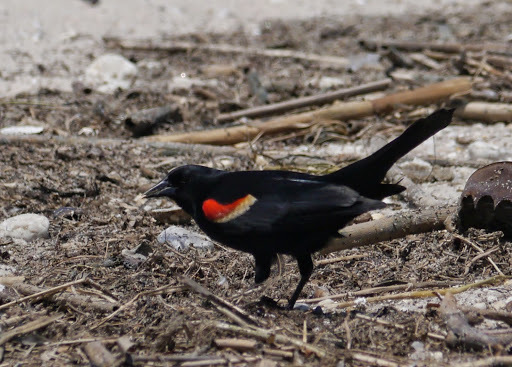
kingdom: Animalia
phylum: Chordata
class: Aves
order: Passeriformes
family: Icteridae
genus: Agelaius
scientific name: Agelaius phoeniceus
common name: Red-winged blackbird
